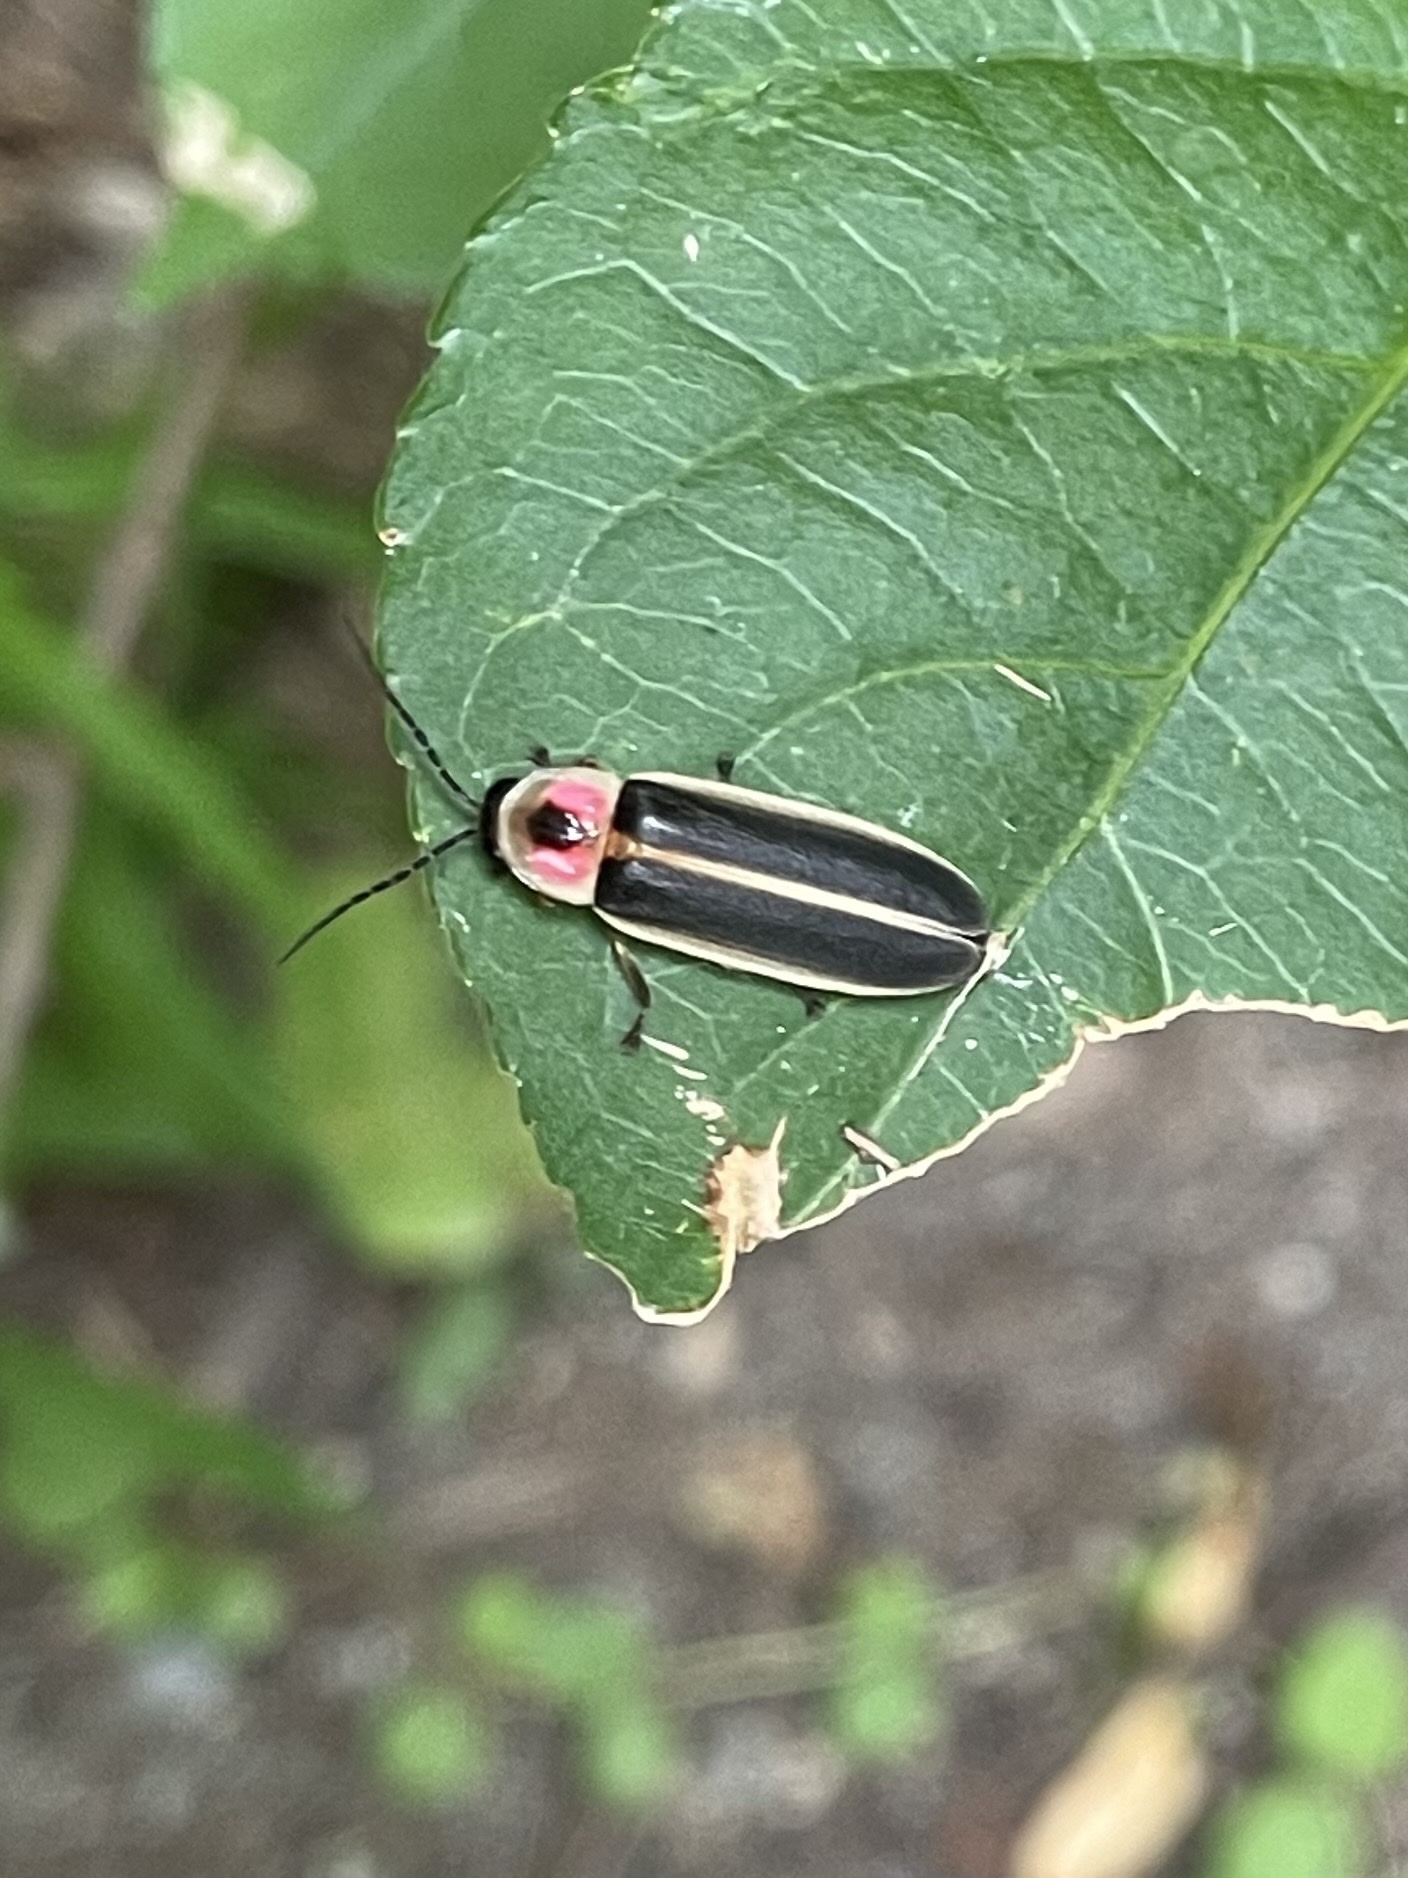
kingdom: Animalia
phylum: Arthropoda
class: Insecta
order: Coleoptera
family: Lampyridae
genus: Photinus
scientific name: Photinus pyralis
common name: Big dipper firefly
